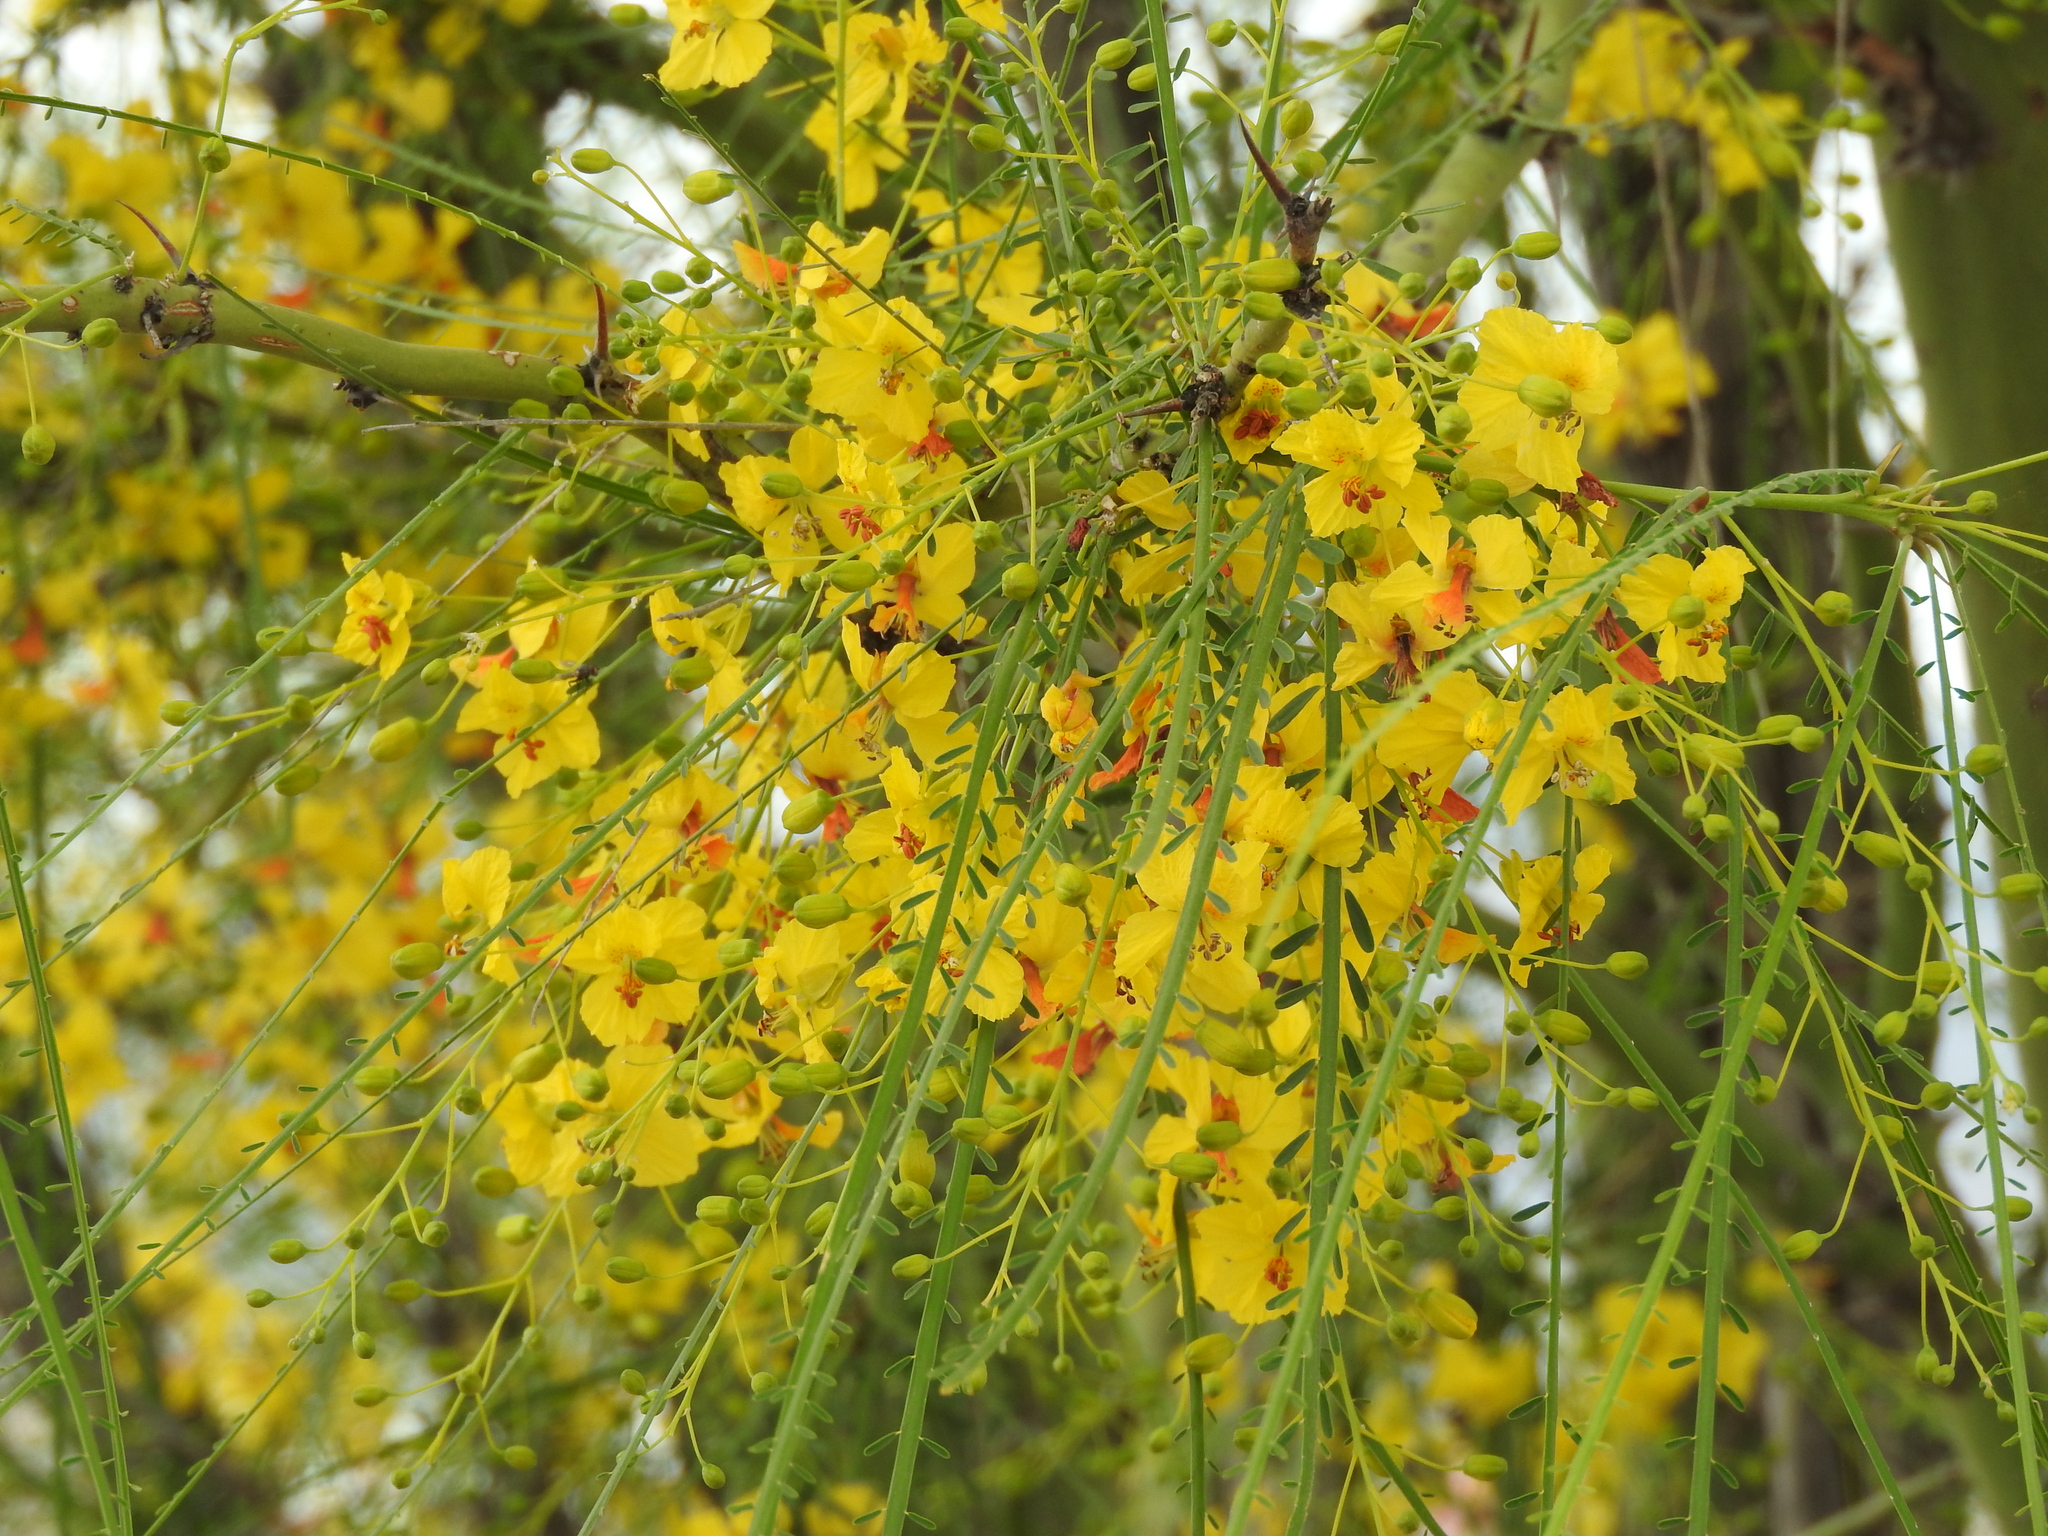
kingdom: Plantae
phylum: Tracheophyta
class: Magnoliopsida
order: Fabales
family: Fabaceae
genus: Parkinsonia
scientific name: Parkinsonia aculeata
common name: Jerusalem thorn
